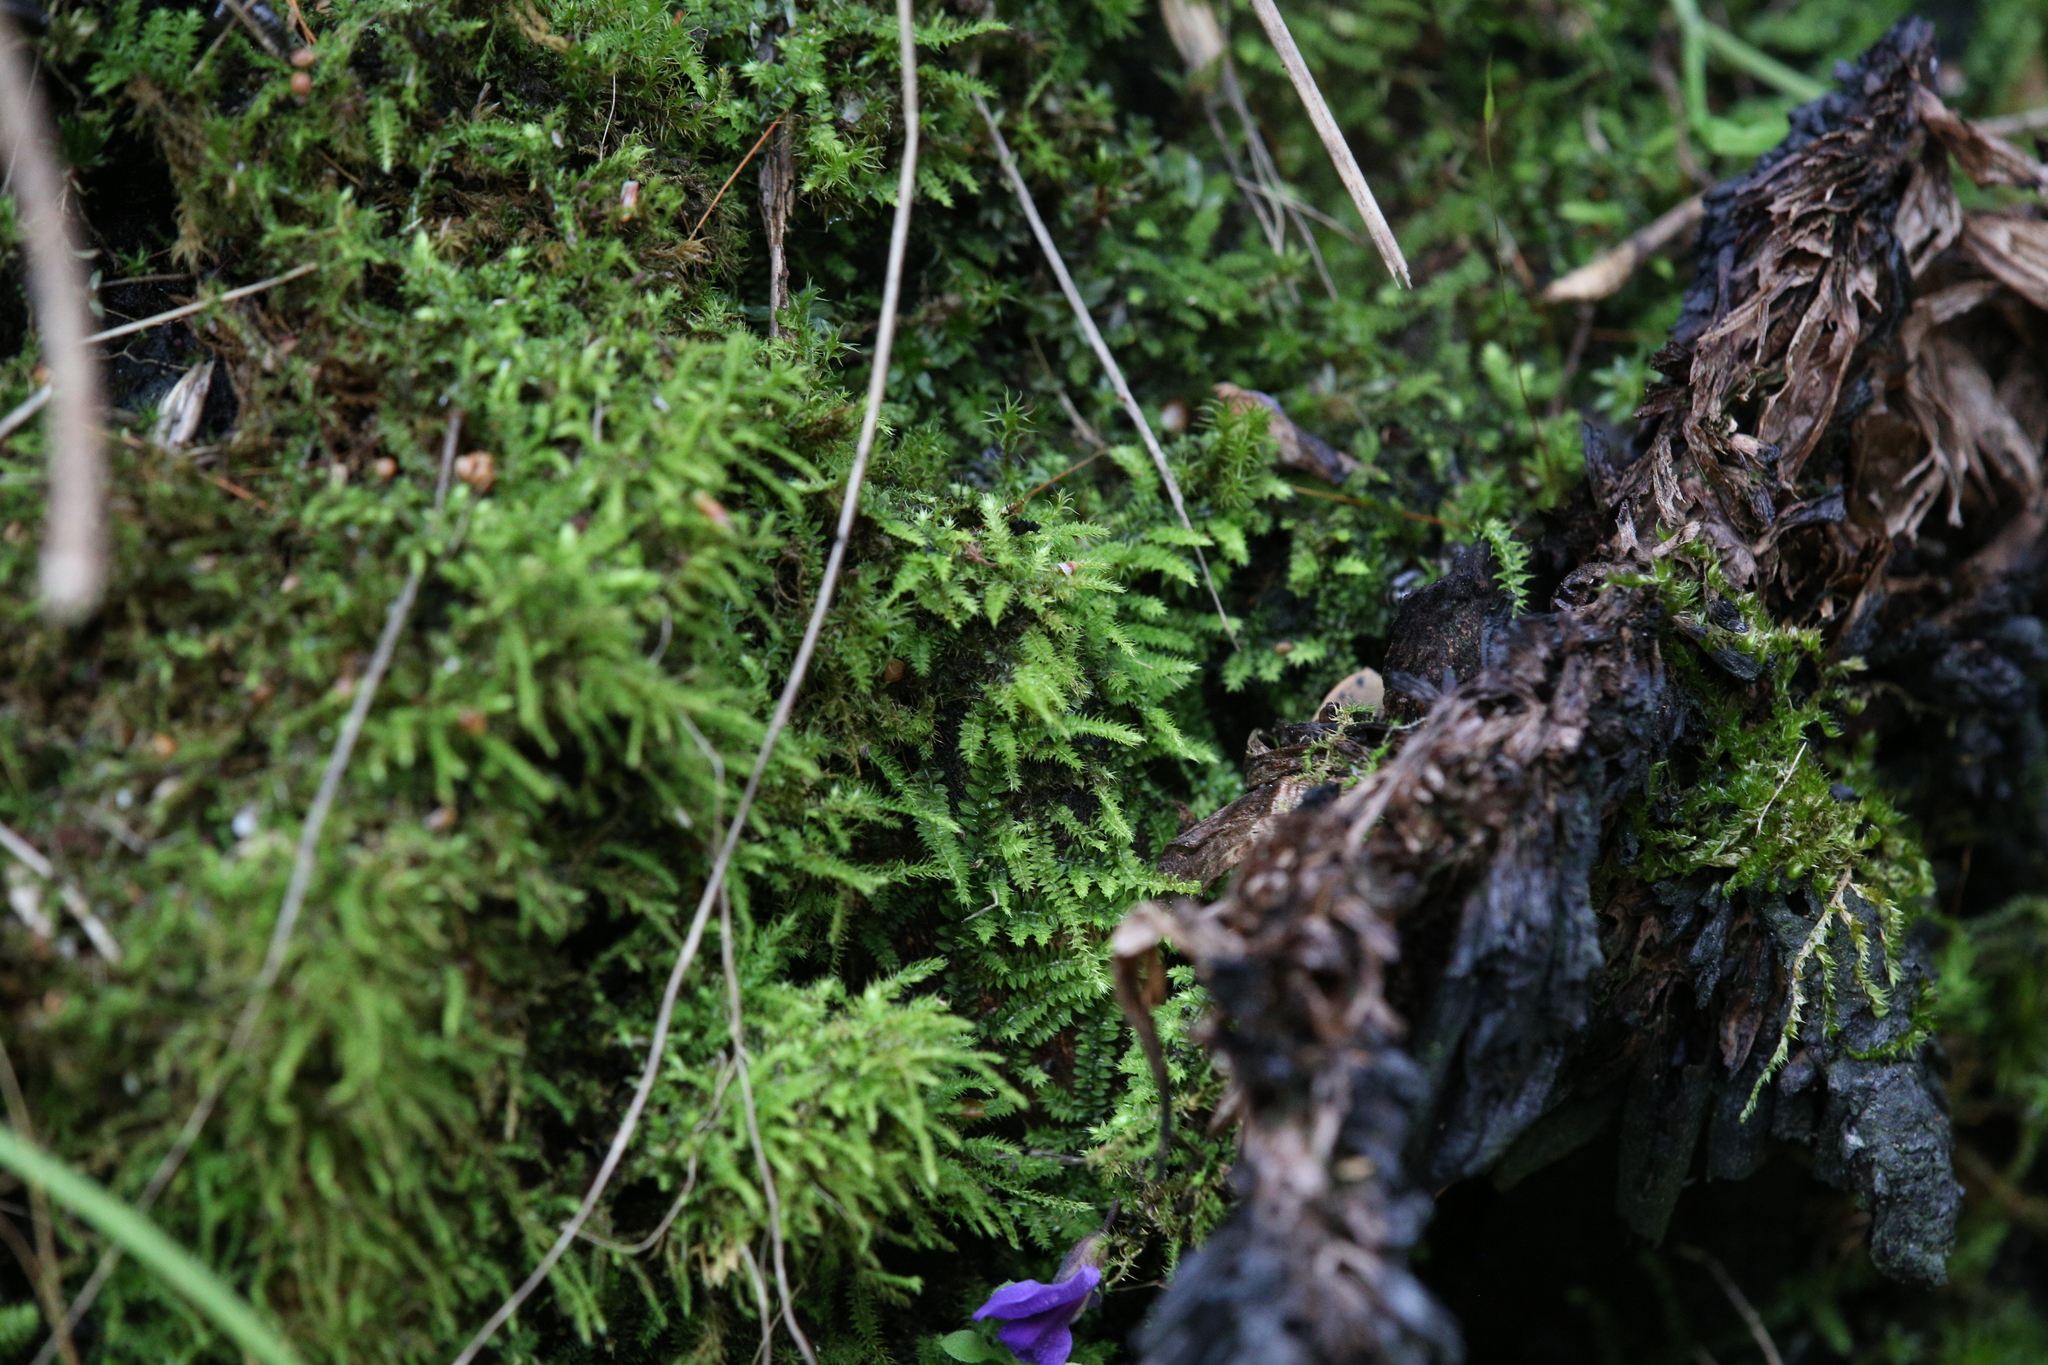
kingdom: Plantae
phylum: Bryophyta
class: Bryopsida
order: Hypnodendrales
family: Racopilaceae
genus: Racopilum
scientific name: Racopilum cuspidigerum
